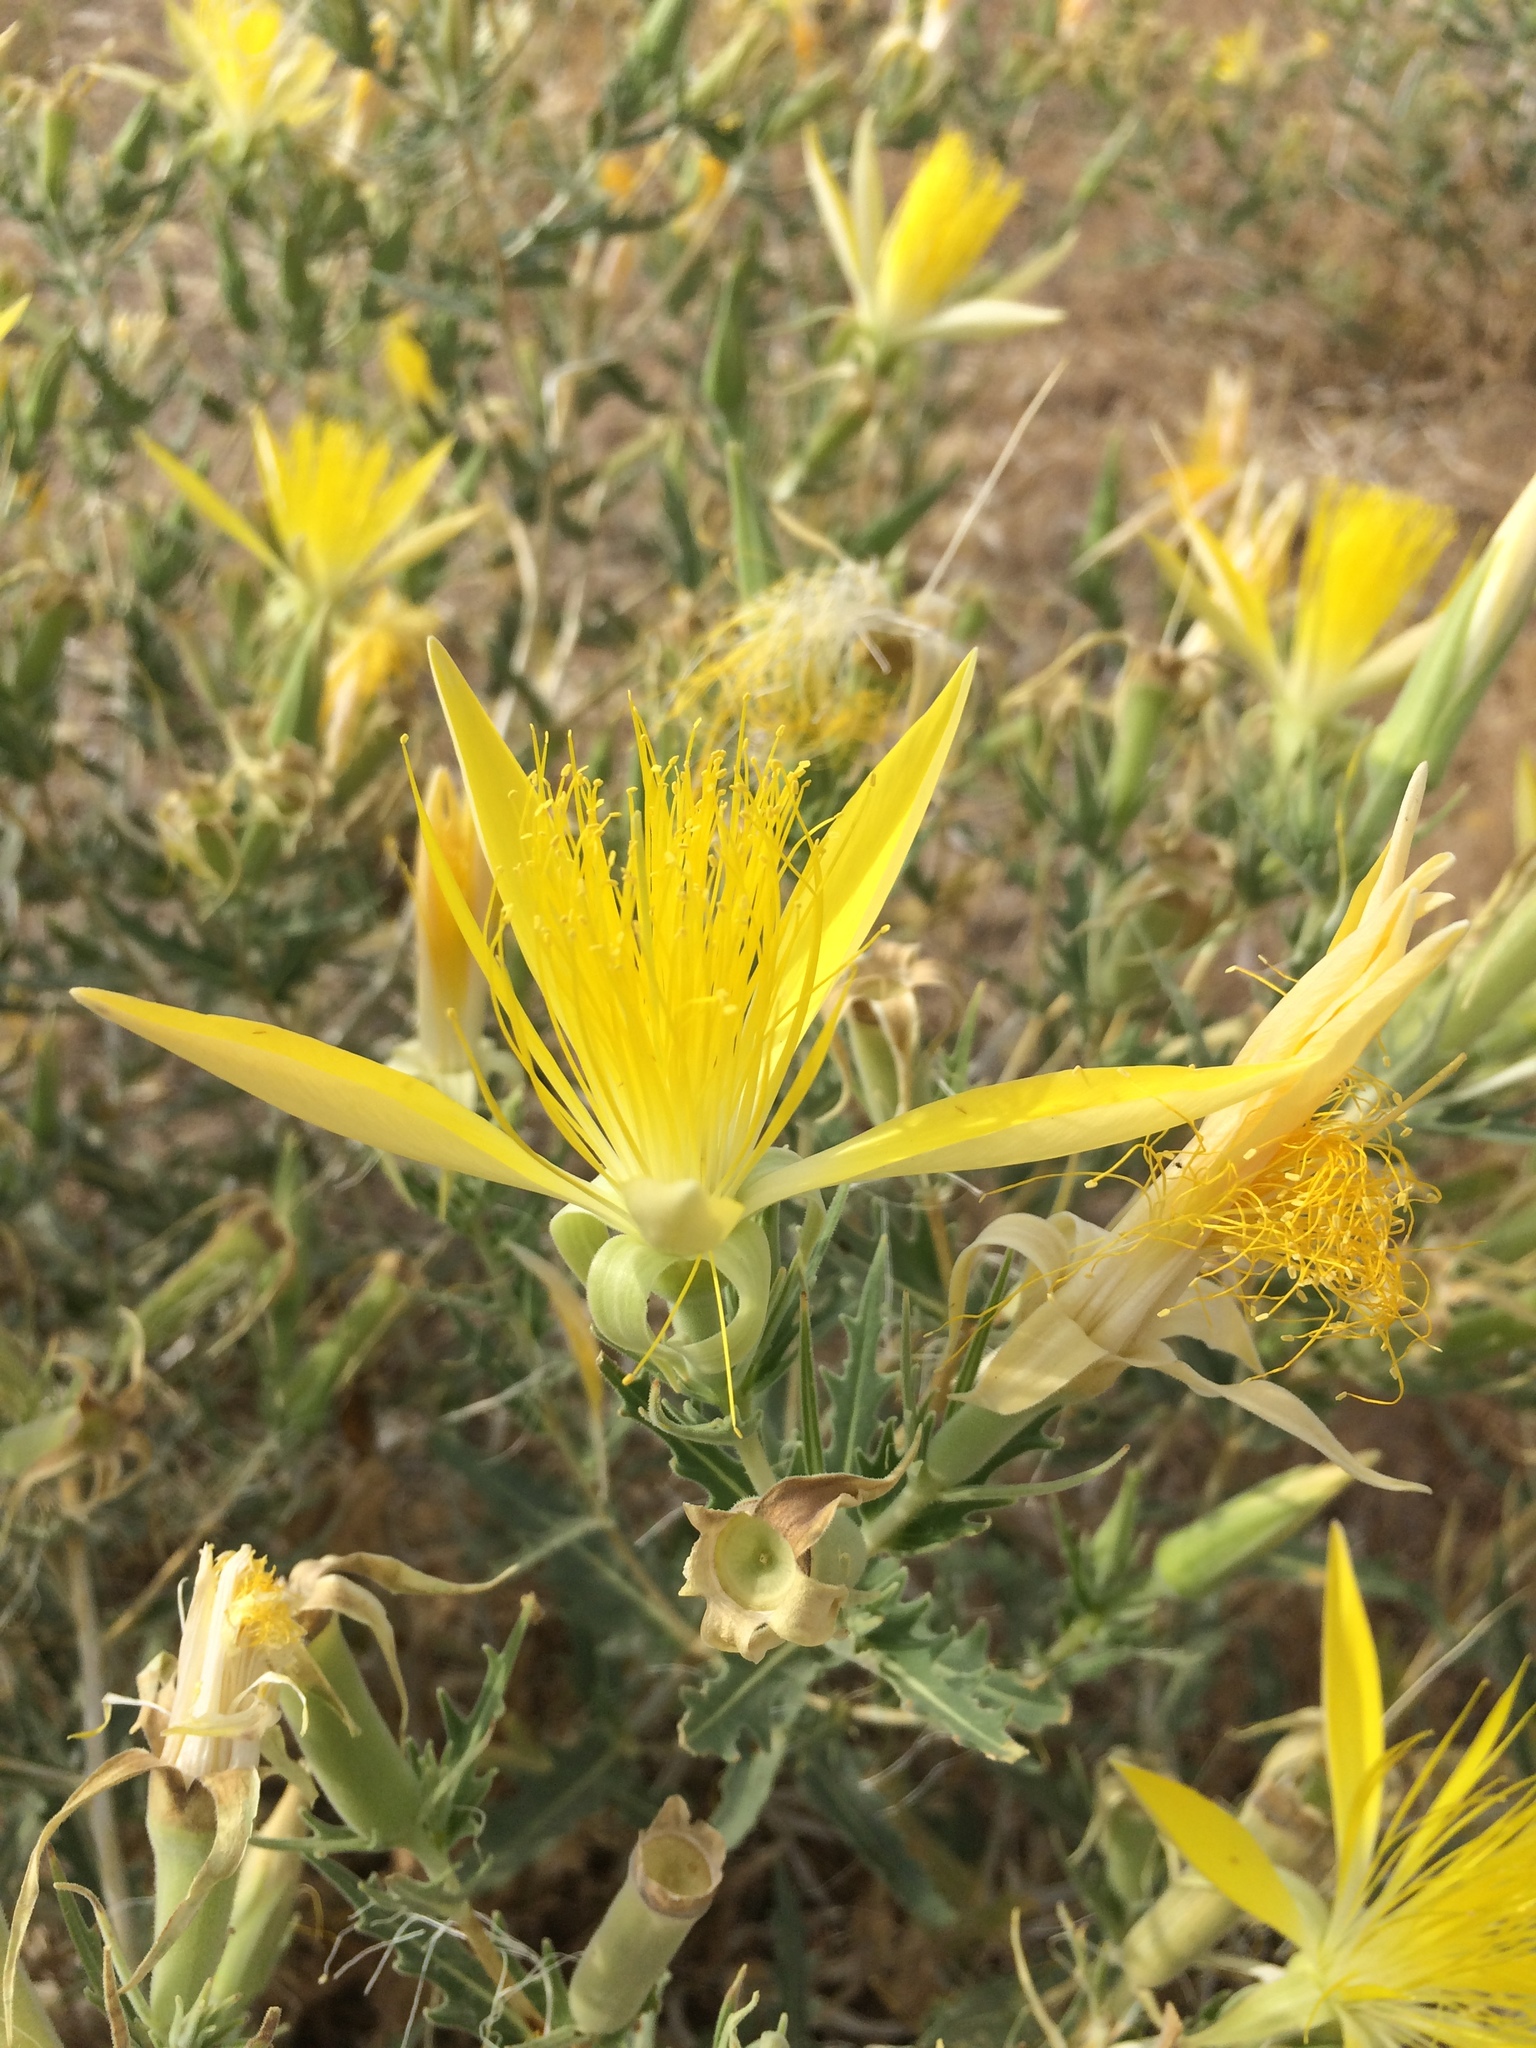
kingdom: Plantae
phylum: Tracheophyta
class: Magnoliopsida
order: Cornales
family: Loasaceae
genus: Mentzelia
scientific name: Mentzelia laevicaulis
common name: Smooth-stem blazingstar
